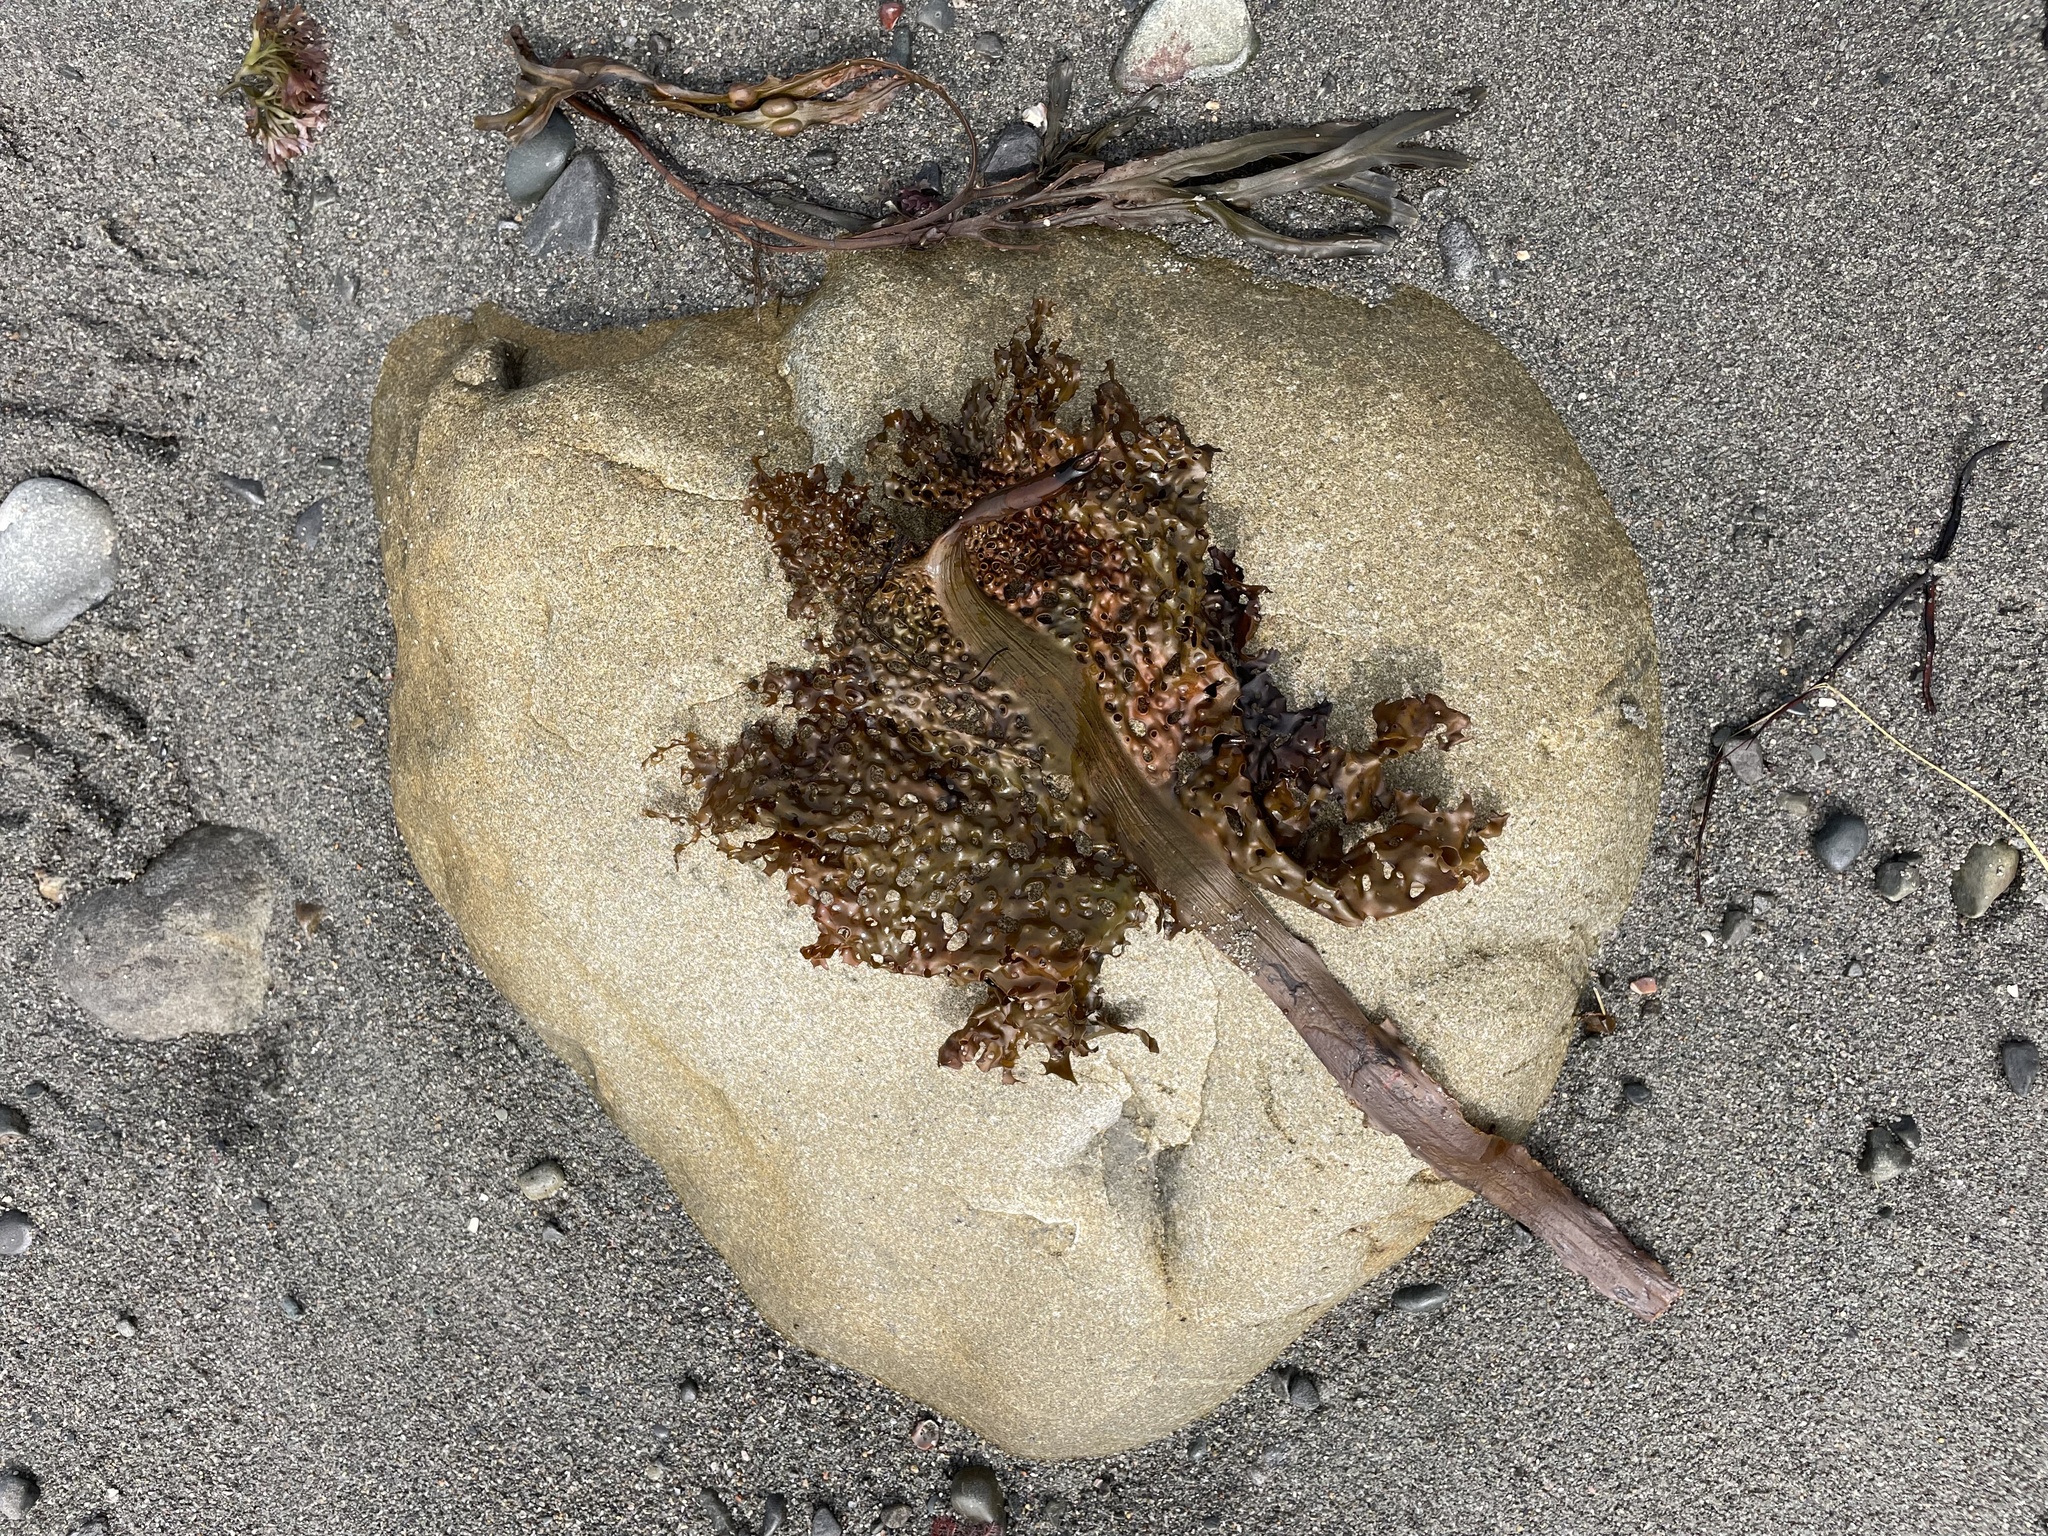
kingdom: Chromista
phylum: Ochrophyta
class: Phaeophyceae
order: Laminariales
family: Costariaceae
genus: Agarum
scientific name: Agarum clathratum
